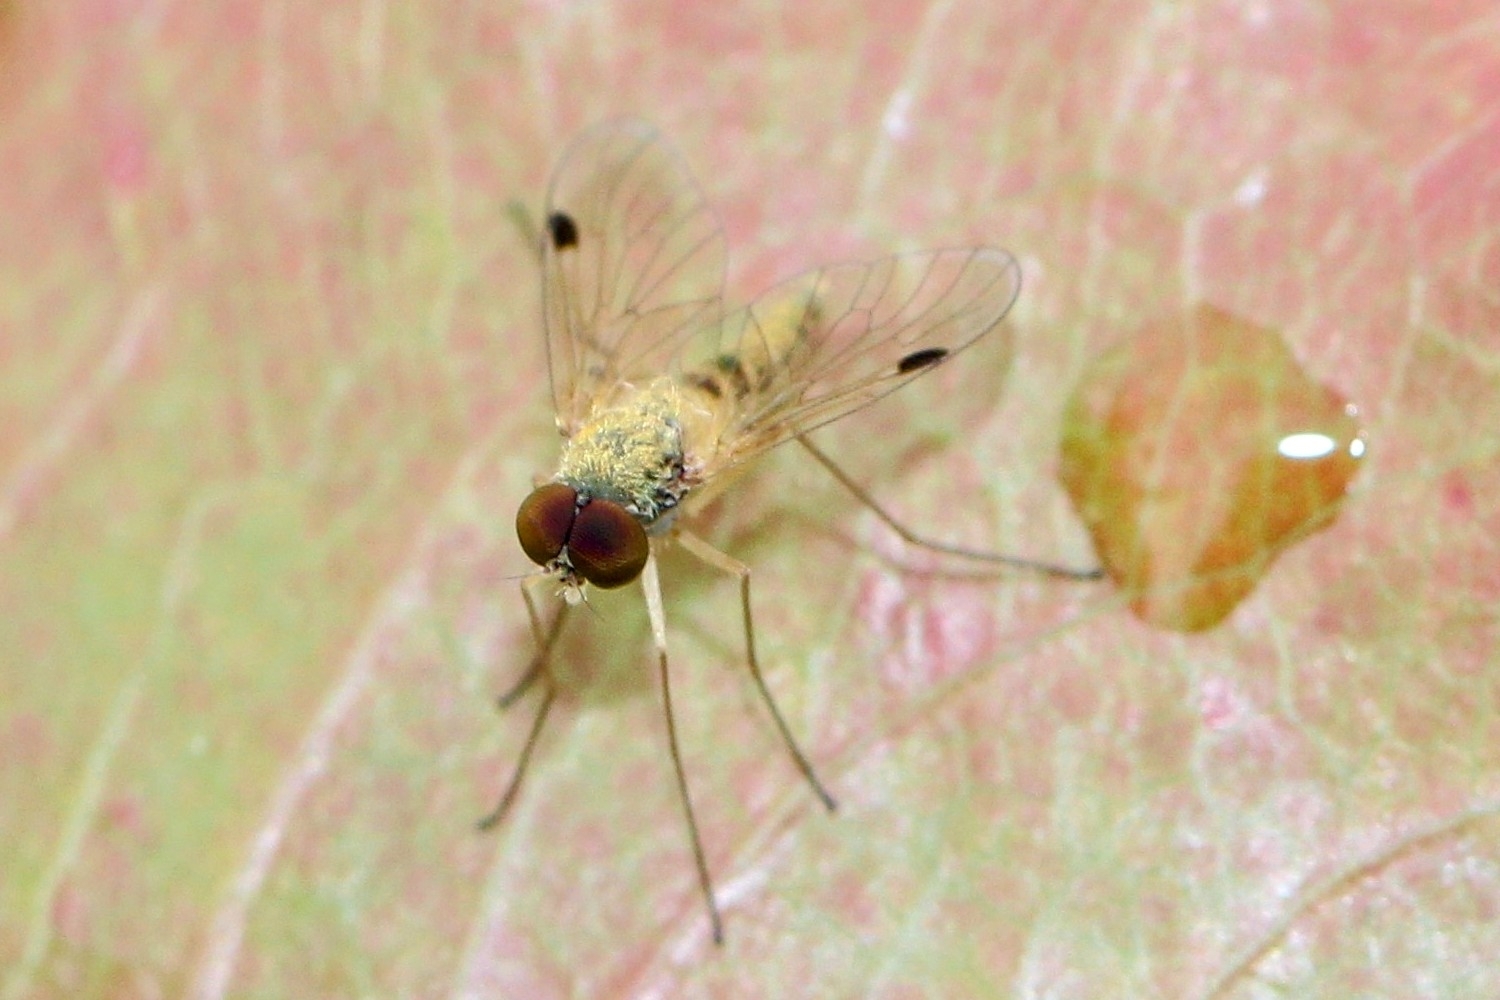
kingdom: Animalia
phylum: Arthropoda
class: Insecta
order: Diptera
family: Rhagionidae
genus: Chrysopilus
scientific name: Chrysopilus modestus
